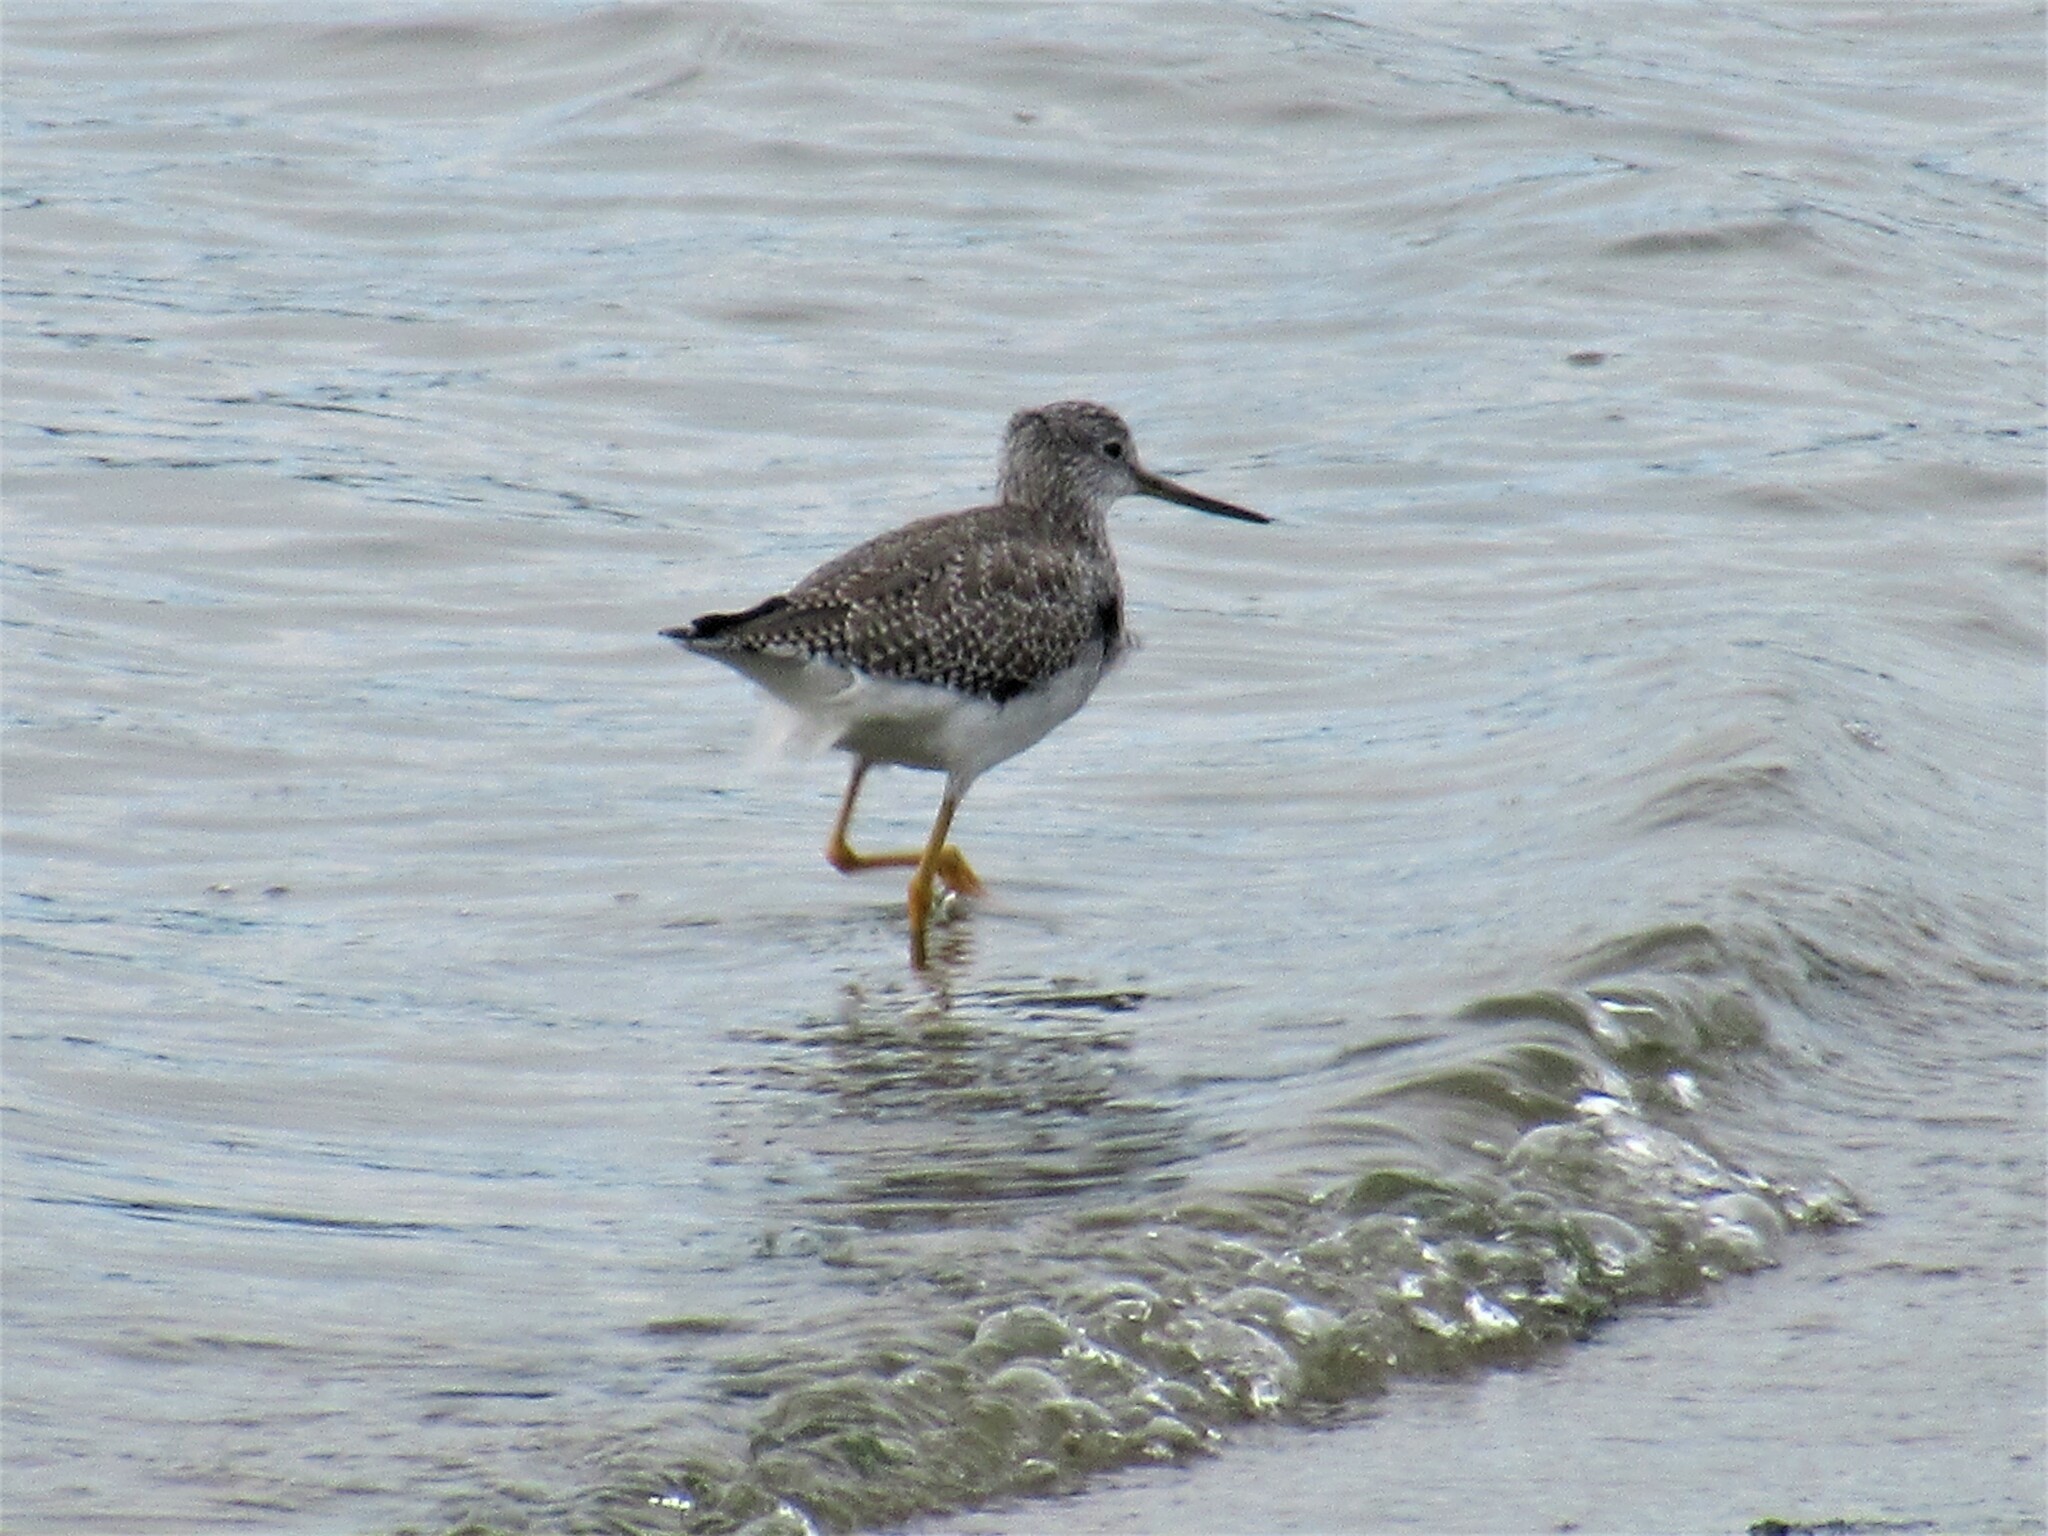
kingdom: Animalia
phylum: Chordata
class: Aves
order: Charadriiformes
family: Scolopacidae
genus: Tringa
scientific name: Tringa melanoleuca
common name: Greater yellowlegs
